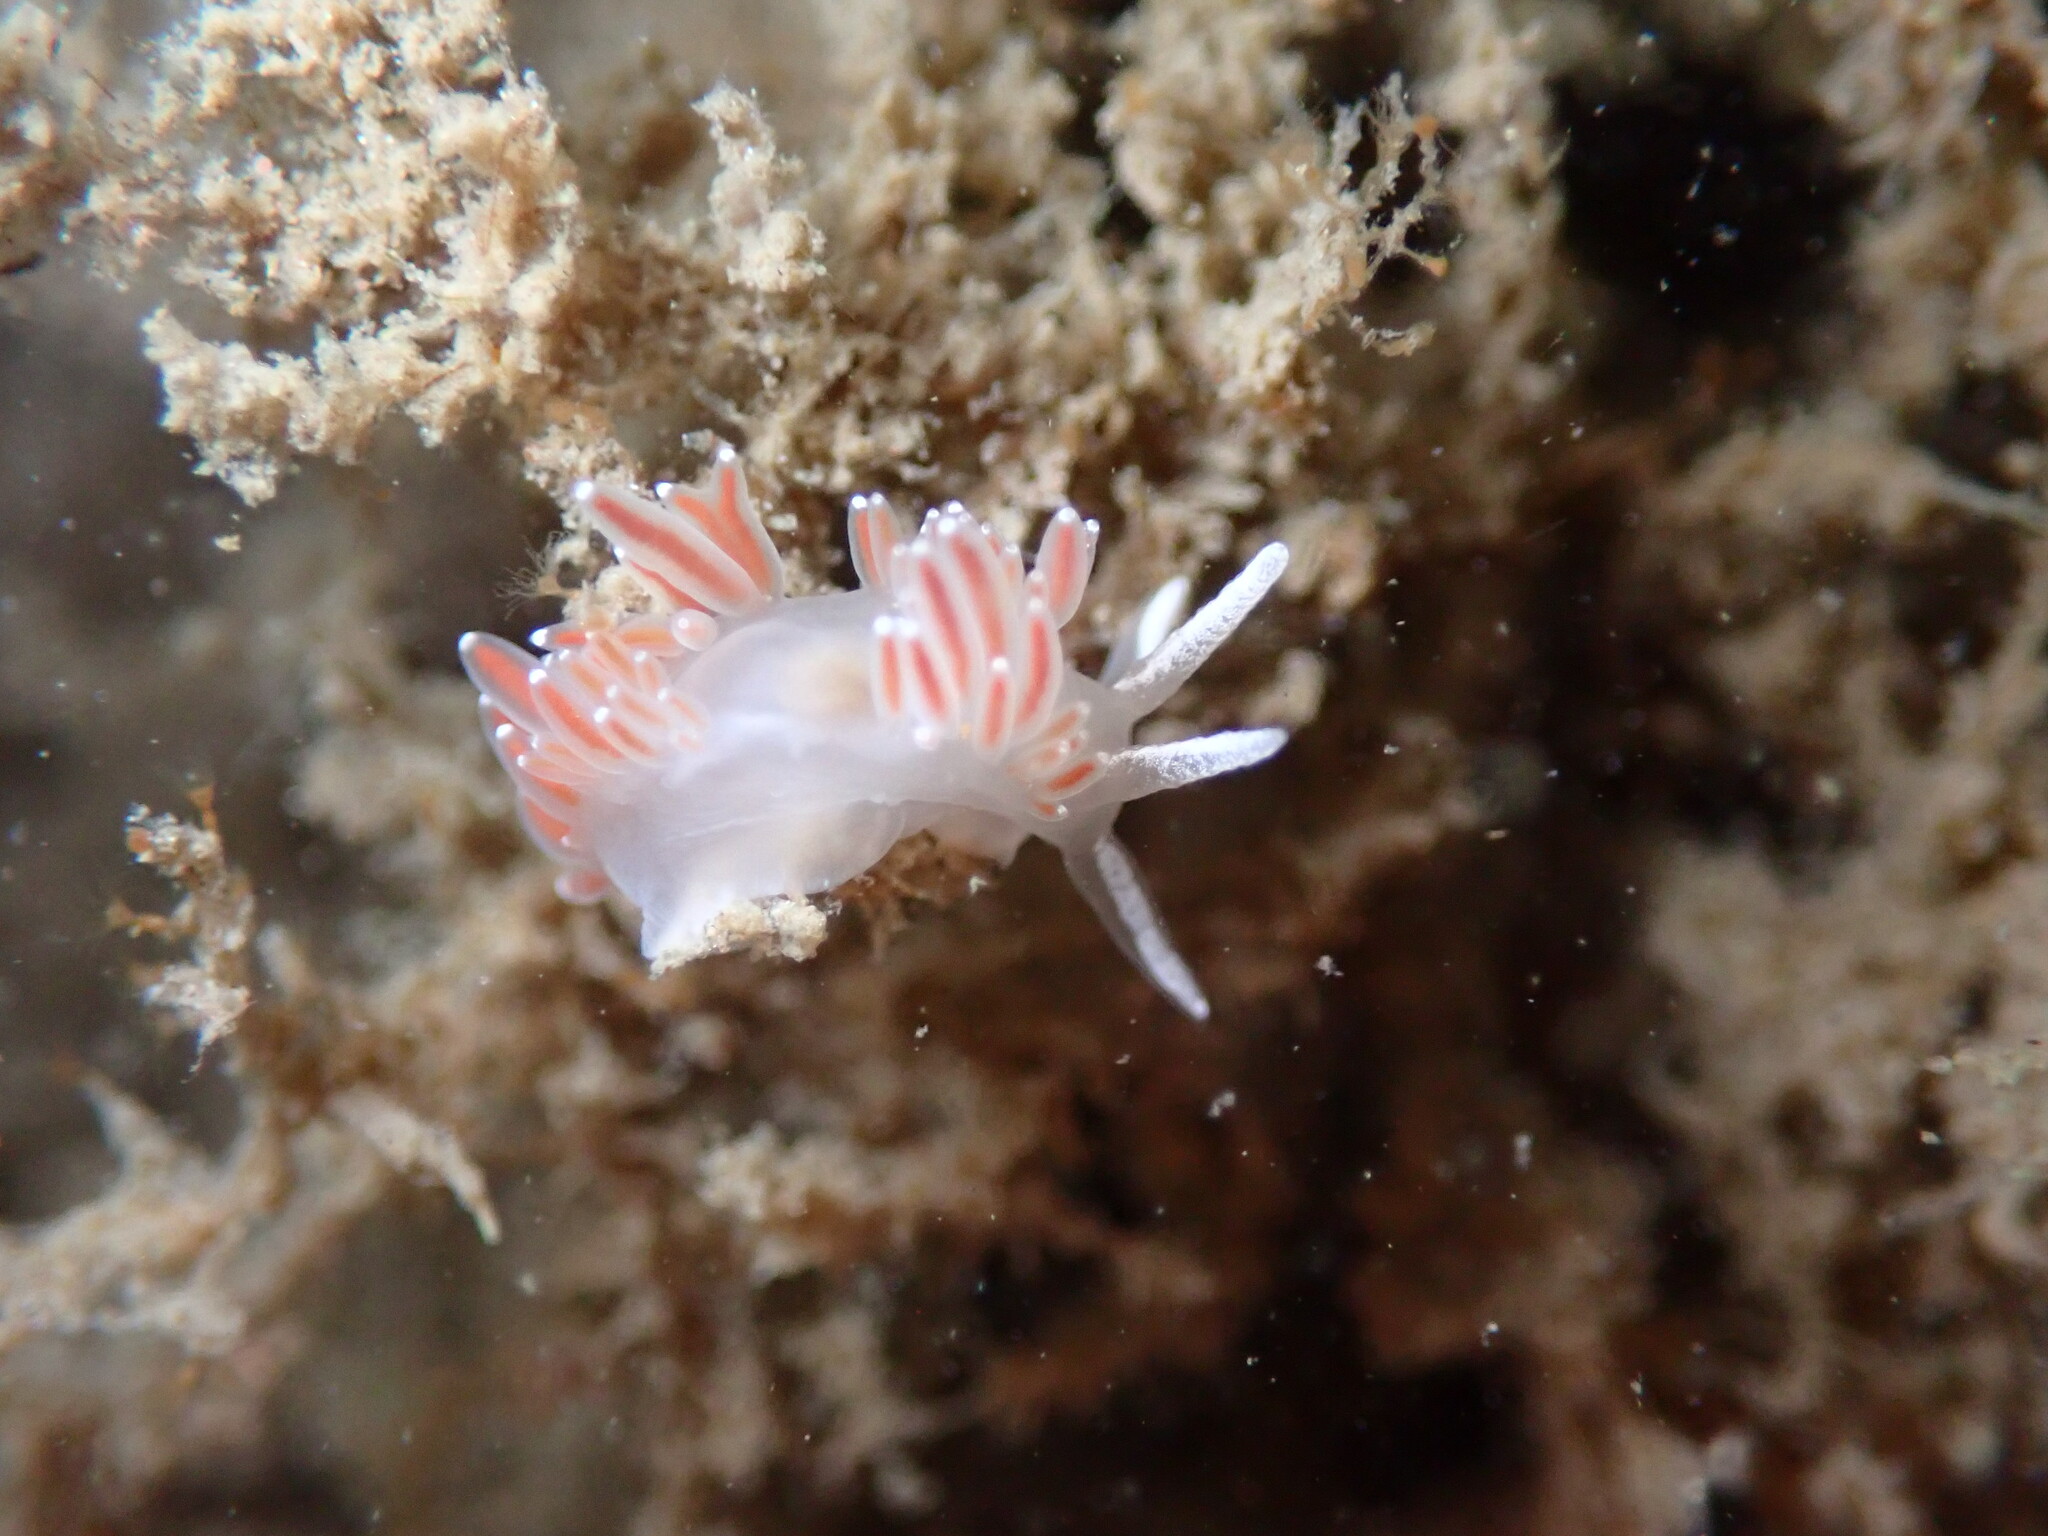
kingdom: Animalia
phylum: Mollusca
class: Gastropoda
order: Nudibranchia
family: Coryphellidae
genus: Coryphella
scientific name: Coryphella verrucosa
